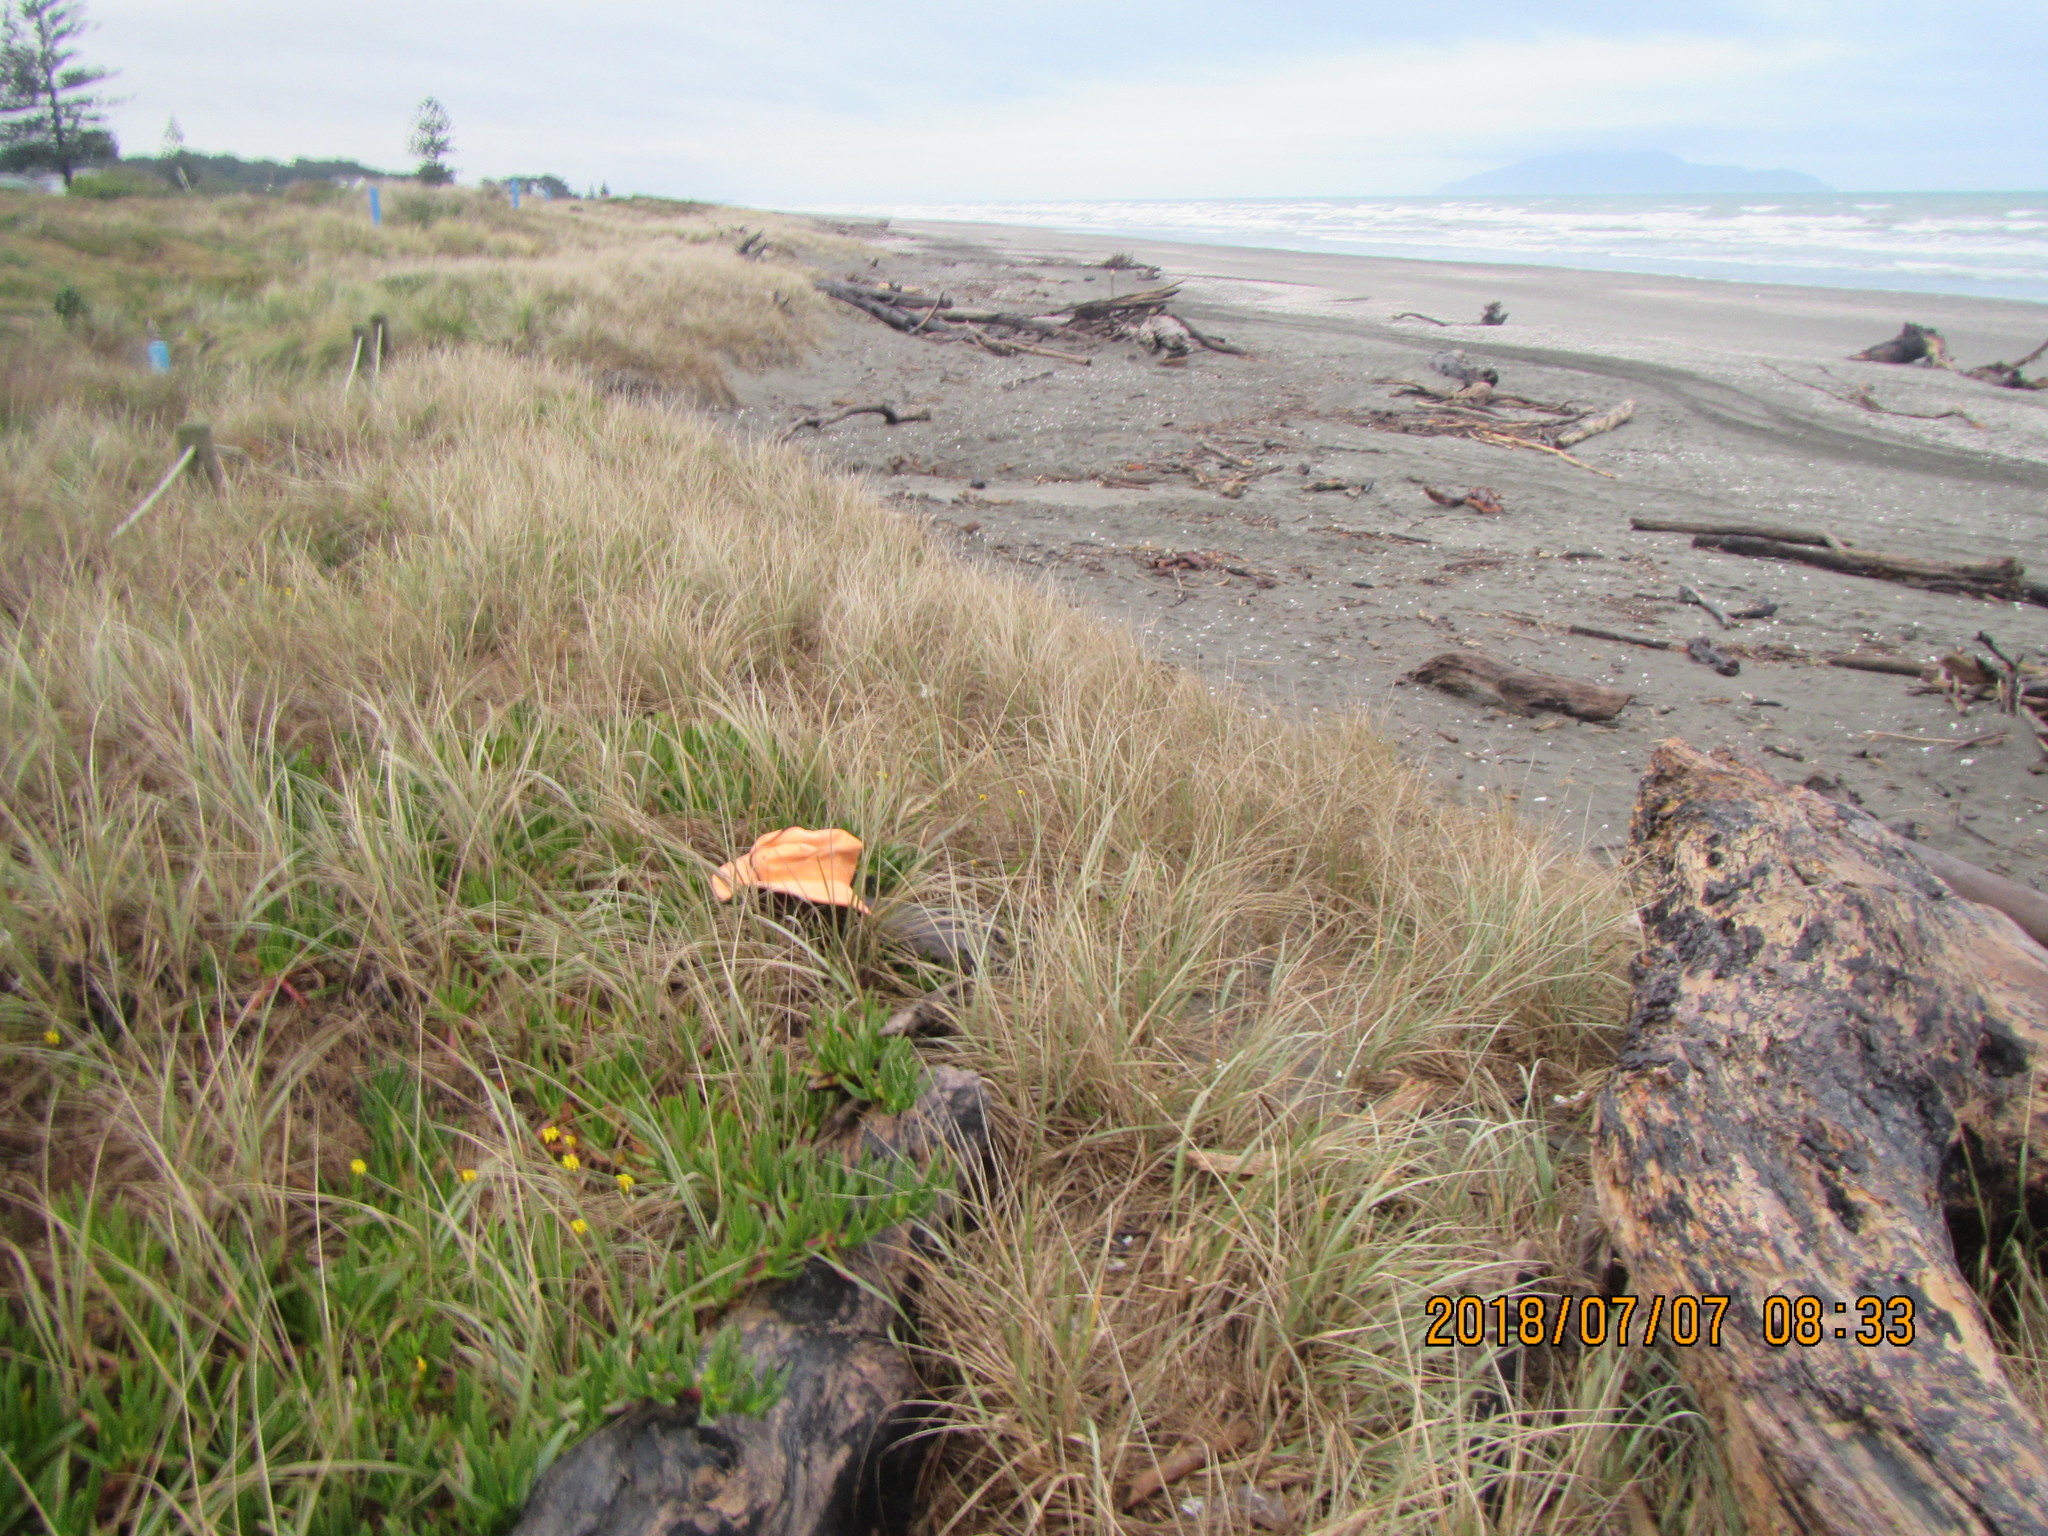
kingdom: Animalia
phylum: Arthropoda
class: Arachnida
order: Araneae
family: Theridiidae
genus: Steatoda
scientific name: Steatoda capensis
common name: Cobweb weaver
